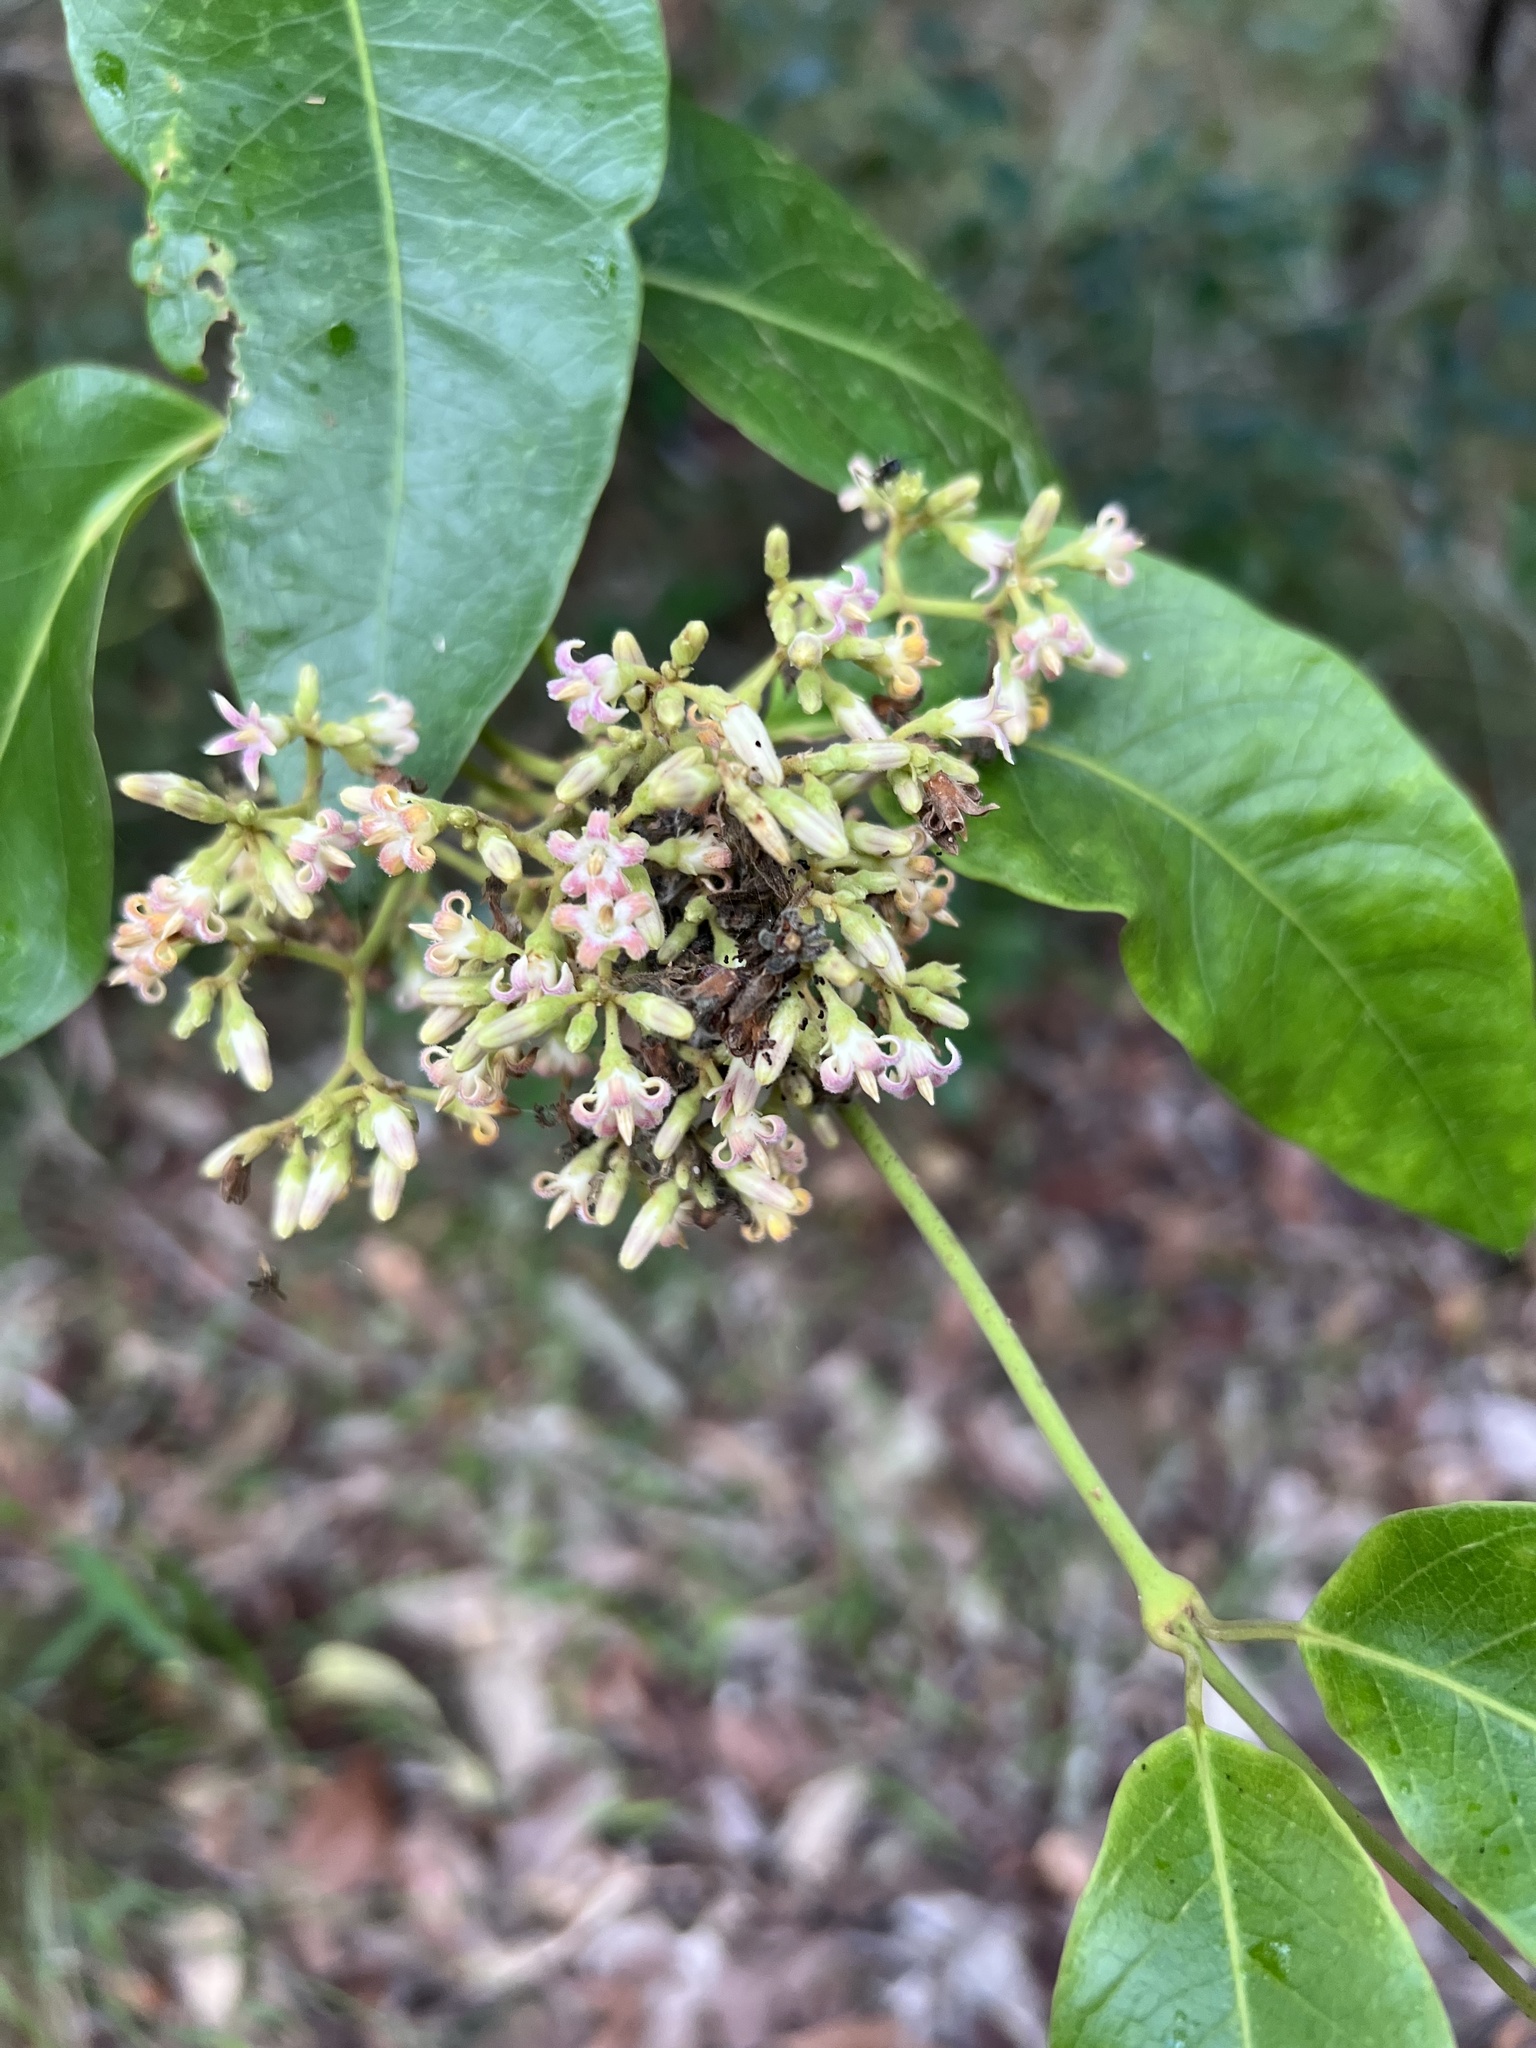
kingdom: Plantae
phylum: Tracheophyta
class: Magnoliopsida
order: Gentianales
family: Apocynaceae
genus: Parsonsia
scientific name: Parsonsia straminea
